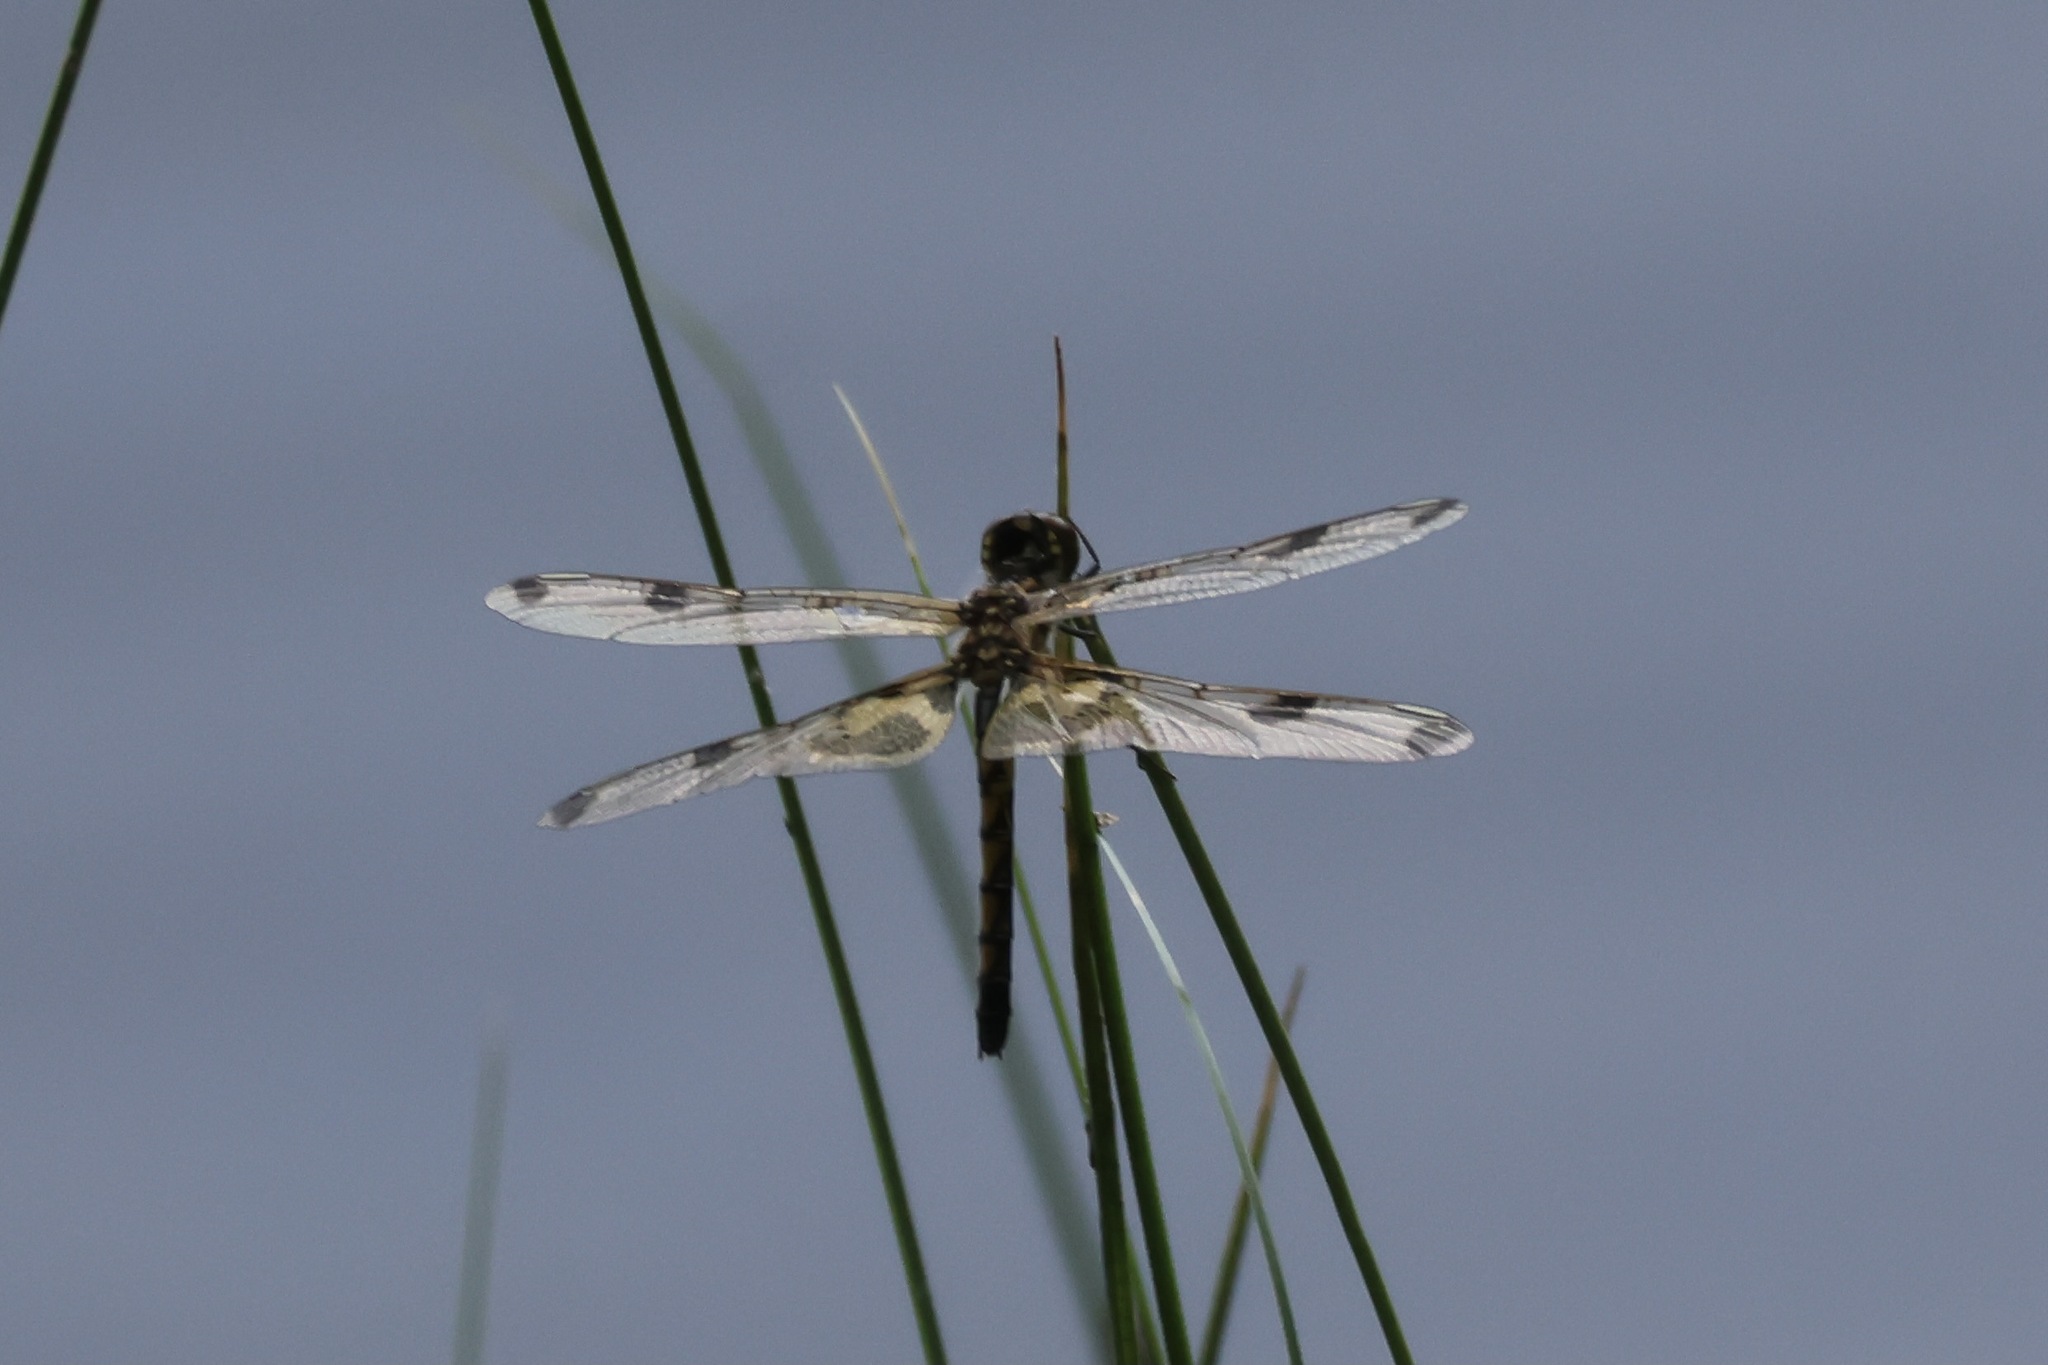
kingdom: Animalia
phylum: Arthropoda
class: Insecta
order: Odonata
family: Libellulidae
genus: Celithemis
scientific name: Celithemis elisa
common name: Calico pennant
